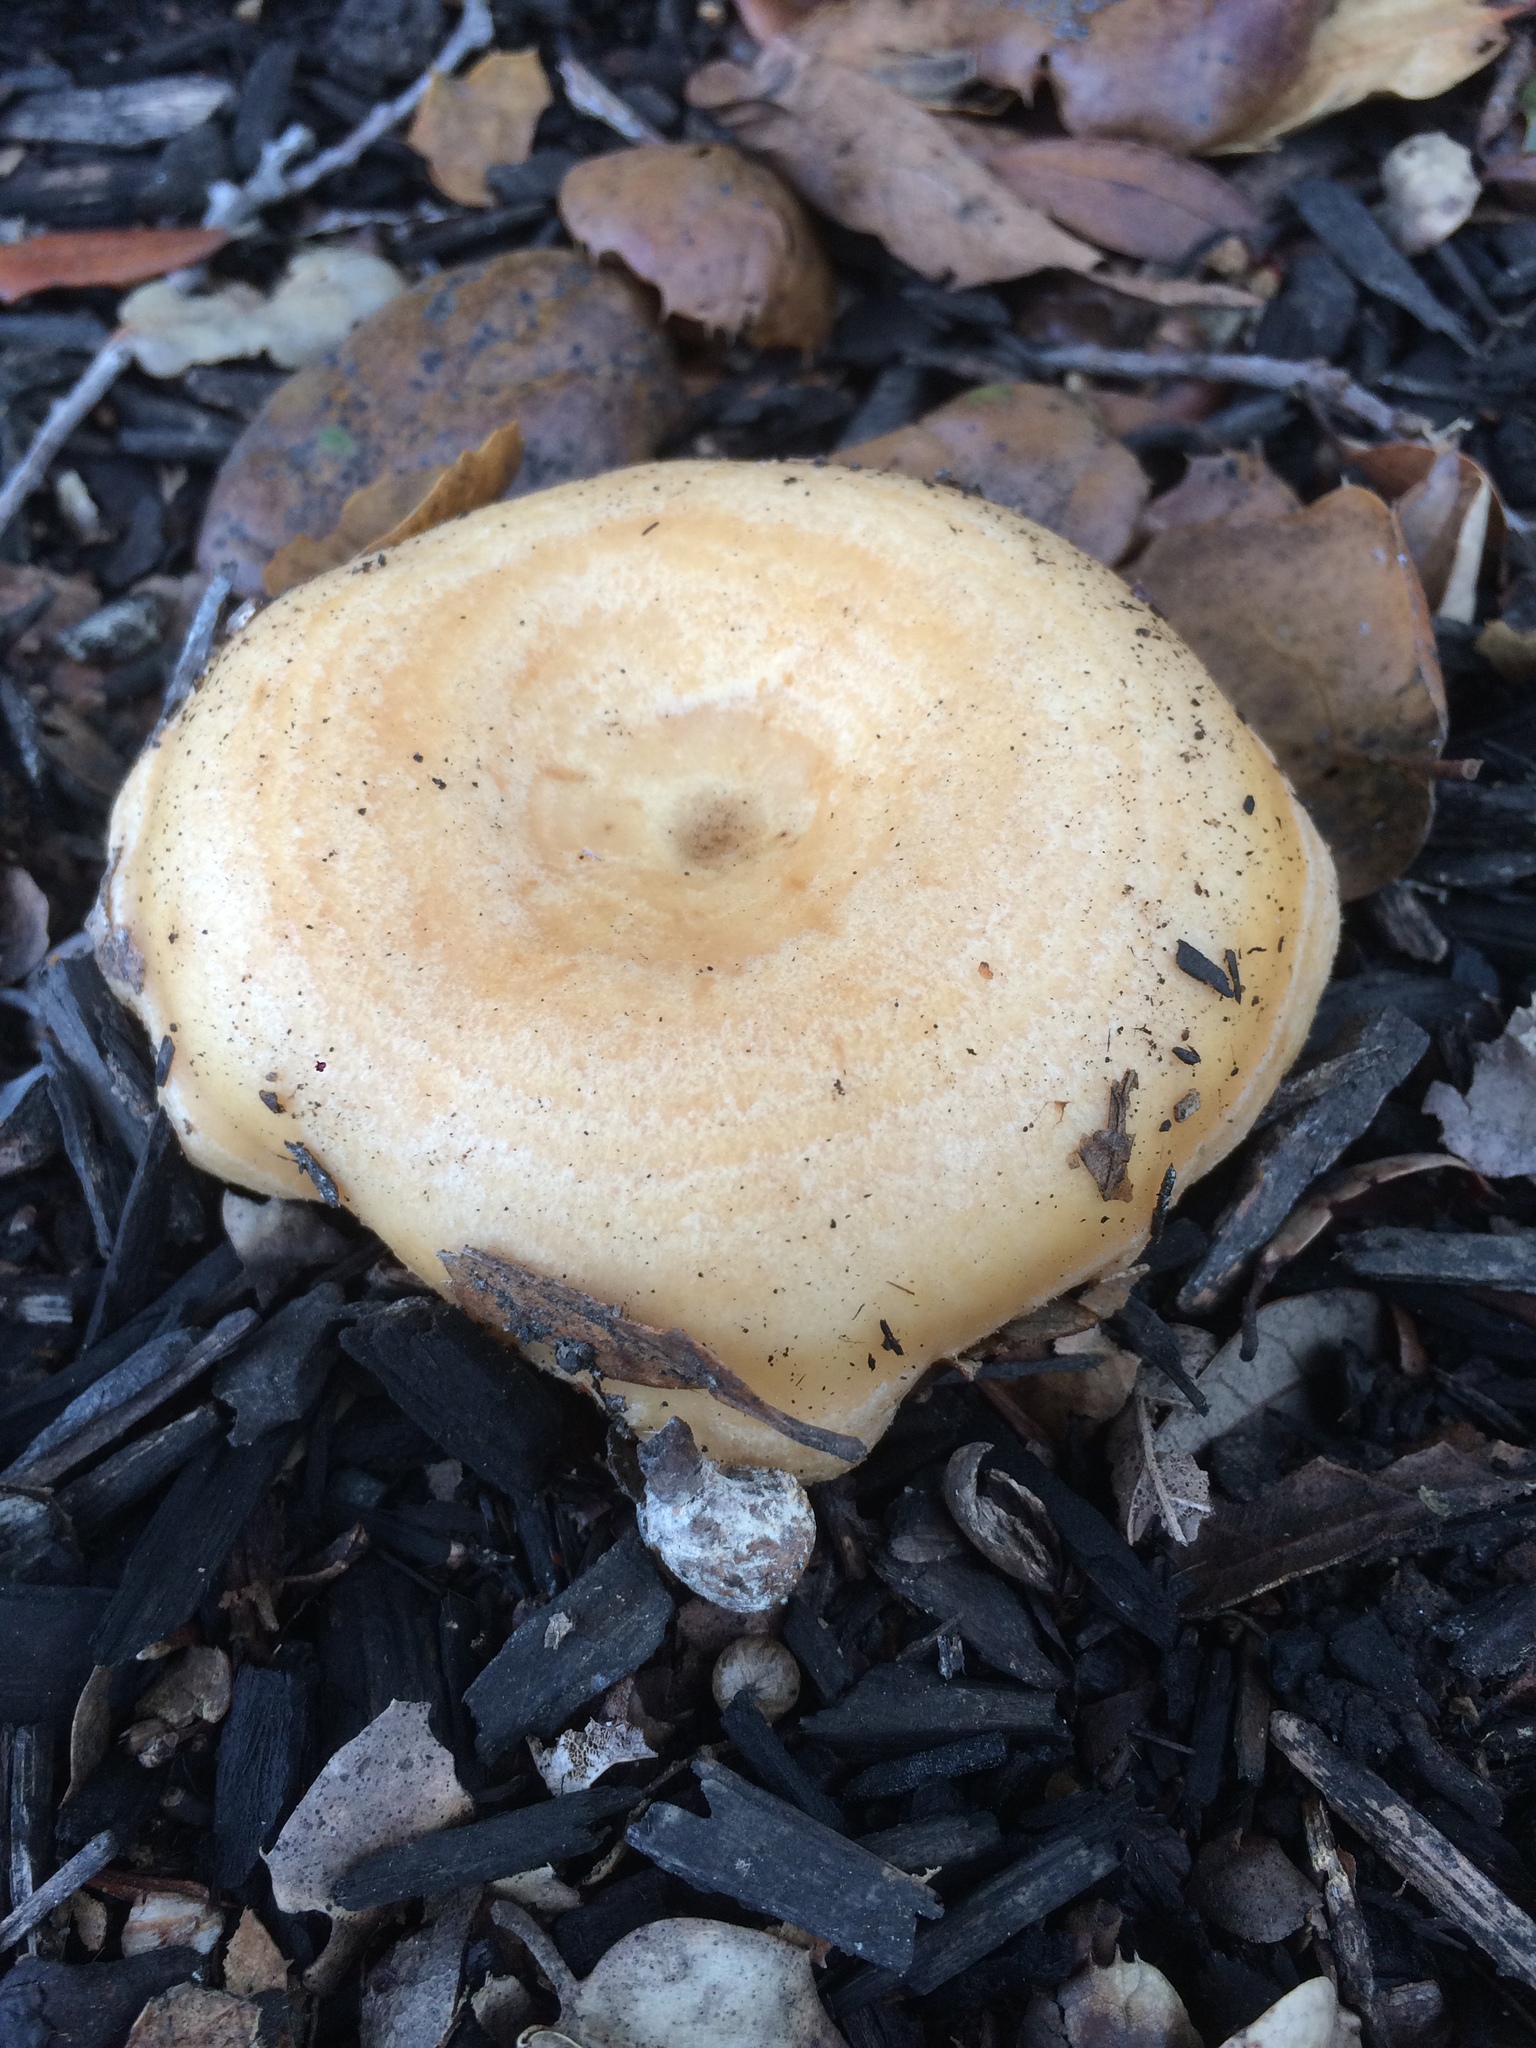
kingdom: Fungi
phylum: Basidiomycota
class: Agaricomycetes
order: Russulales
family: Russulaceae
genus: Lactarius
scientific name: Lactarius alnicola
